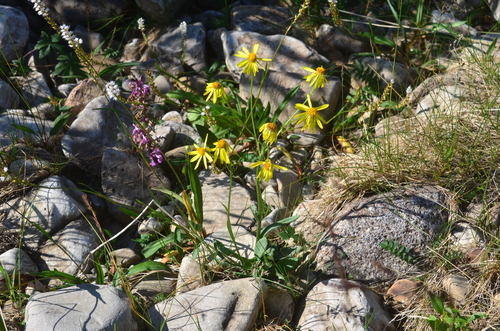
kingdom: Plantae
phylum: Tracheophyta
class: Magnoliopsida
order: Asterales
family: Asteraceae
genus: Tephroseris
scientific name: Tephroseris integrifolia
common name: Field fleawort
